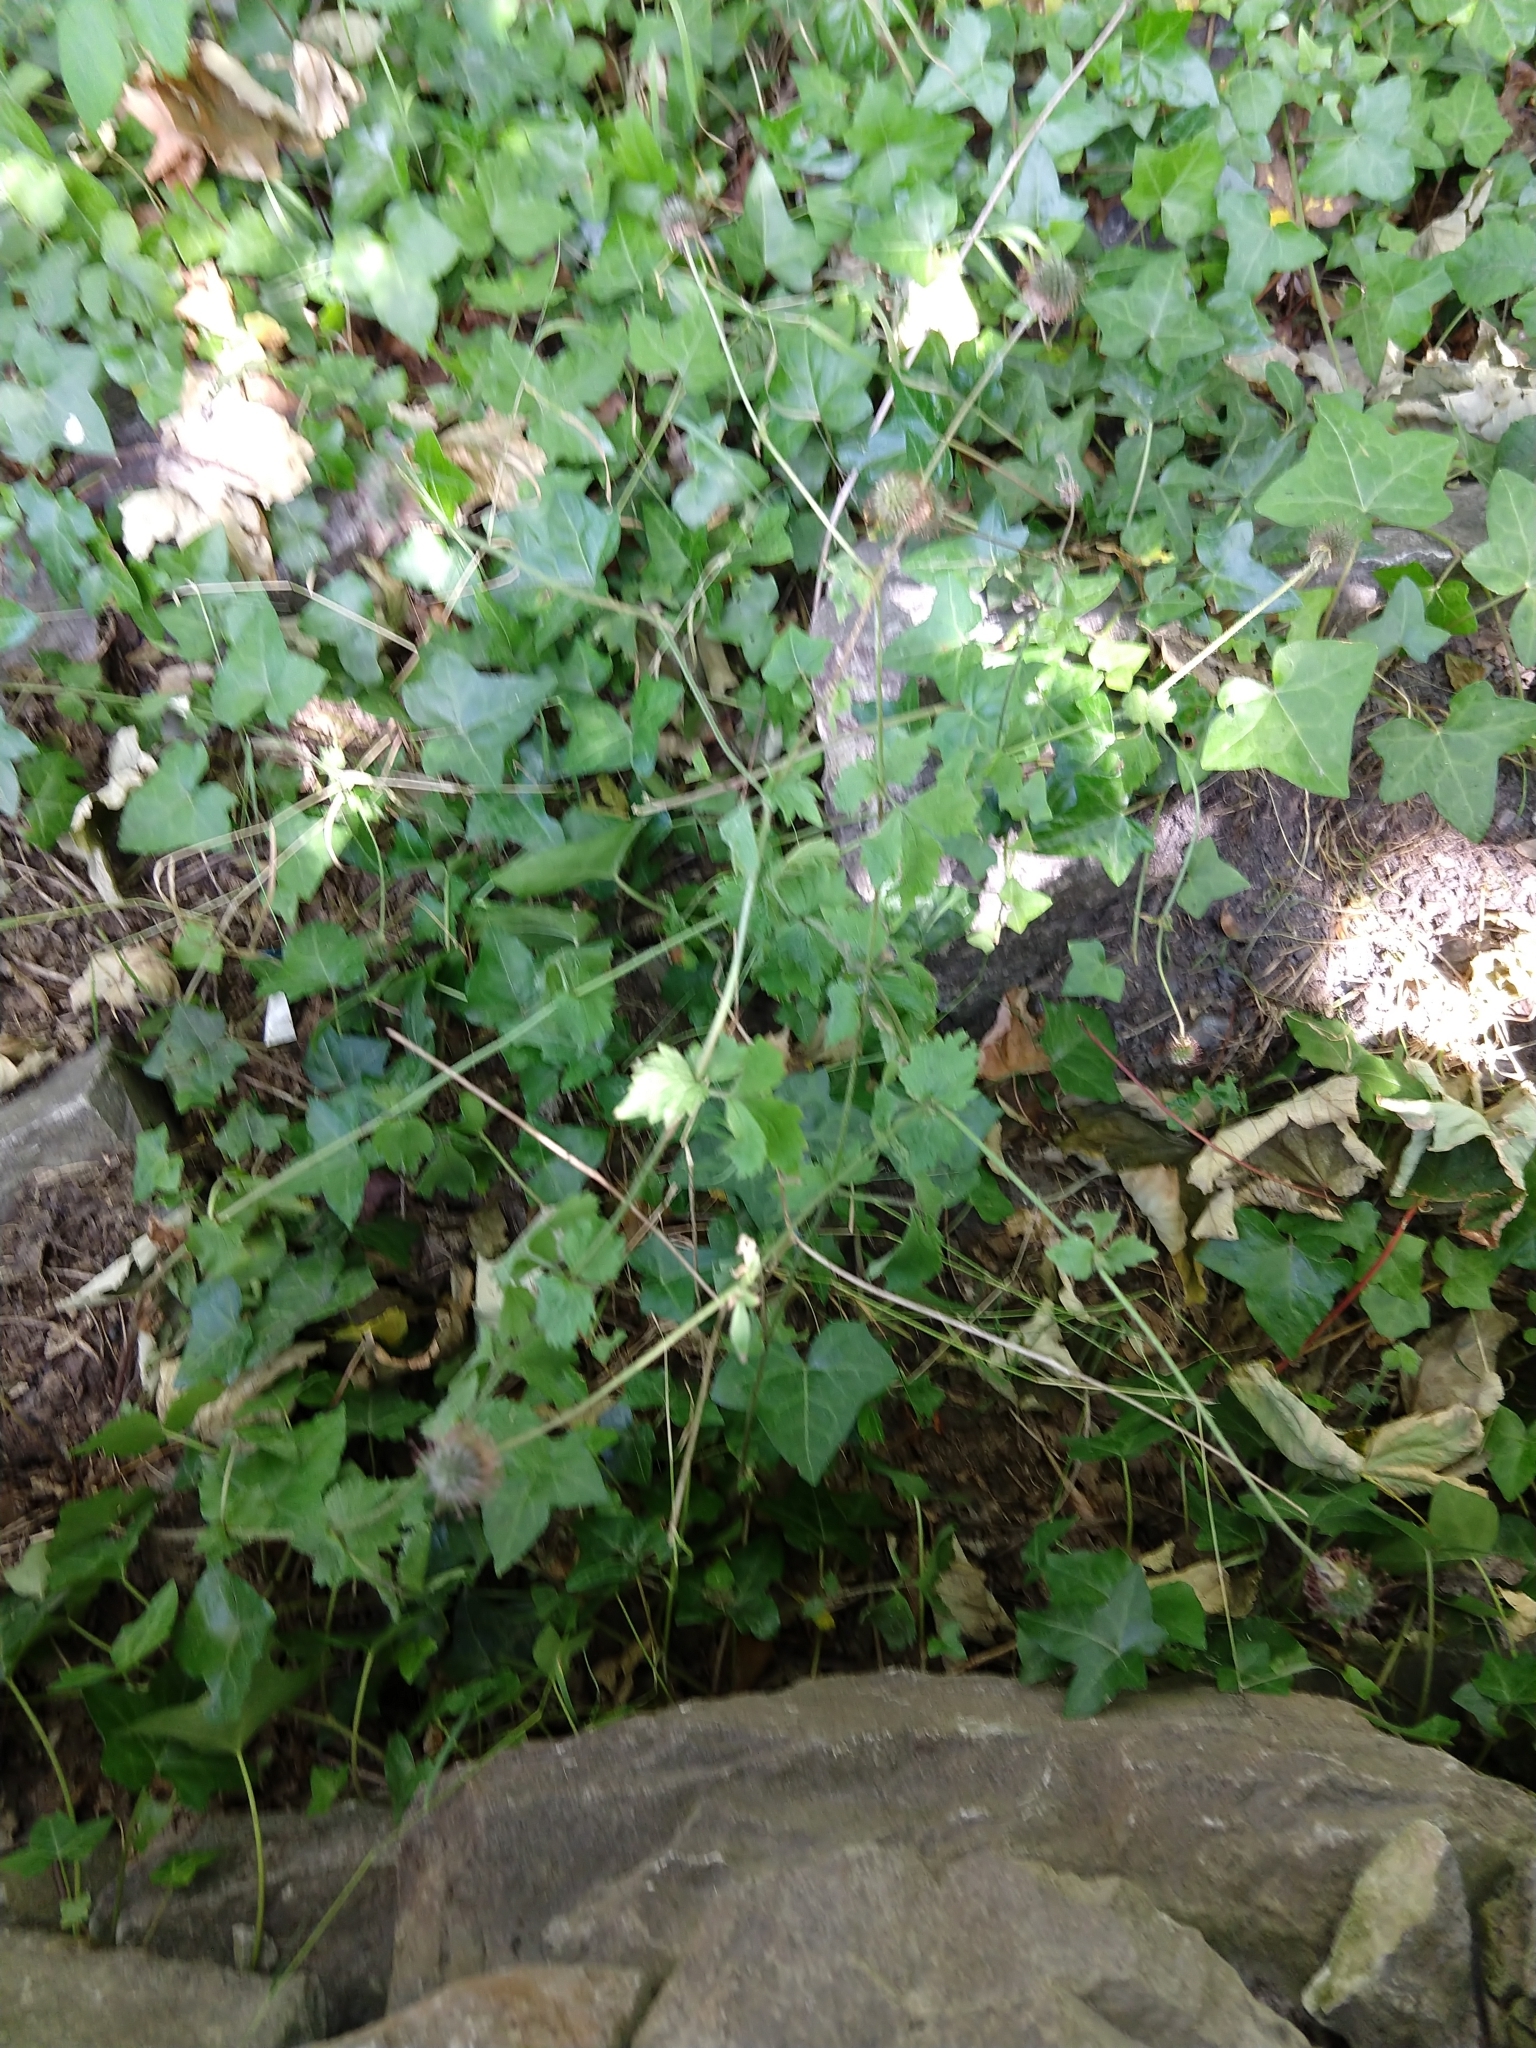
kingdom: Plantae
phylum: Tracheophyta
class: Magnoliopsida
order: Rosales
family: Rosaceae
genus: Geum
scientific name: Geum urbanum
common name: Wood avens
